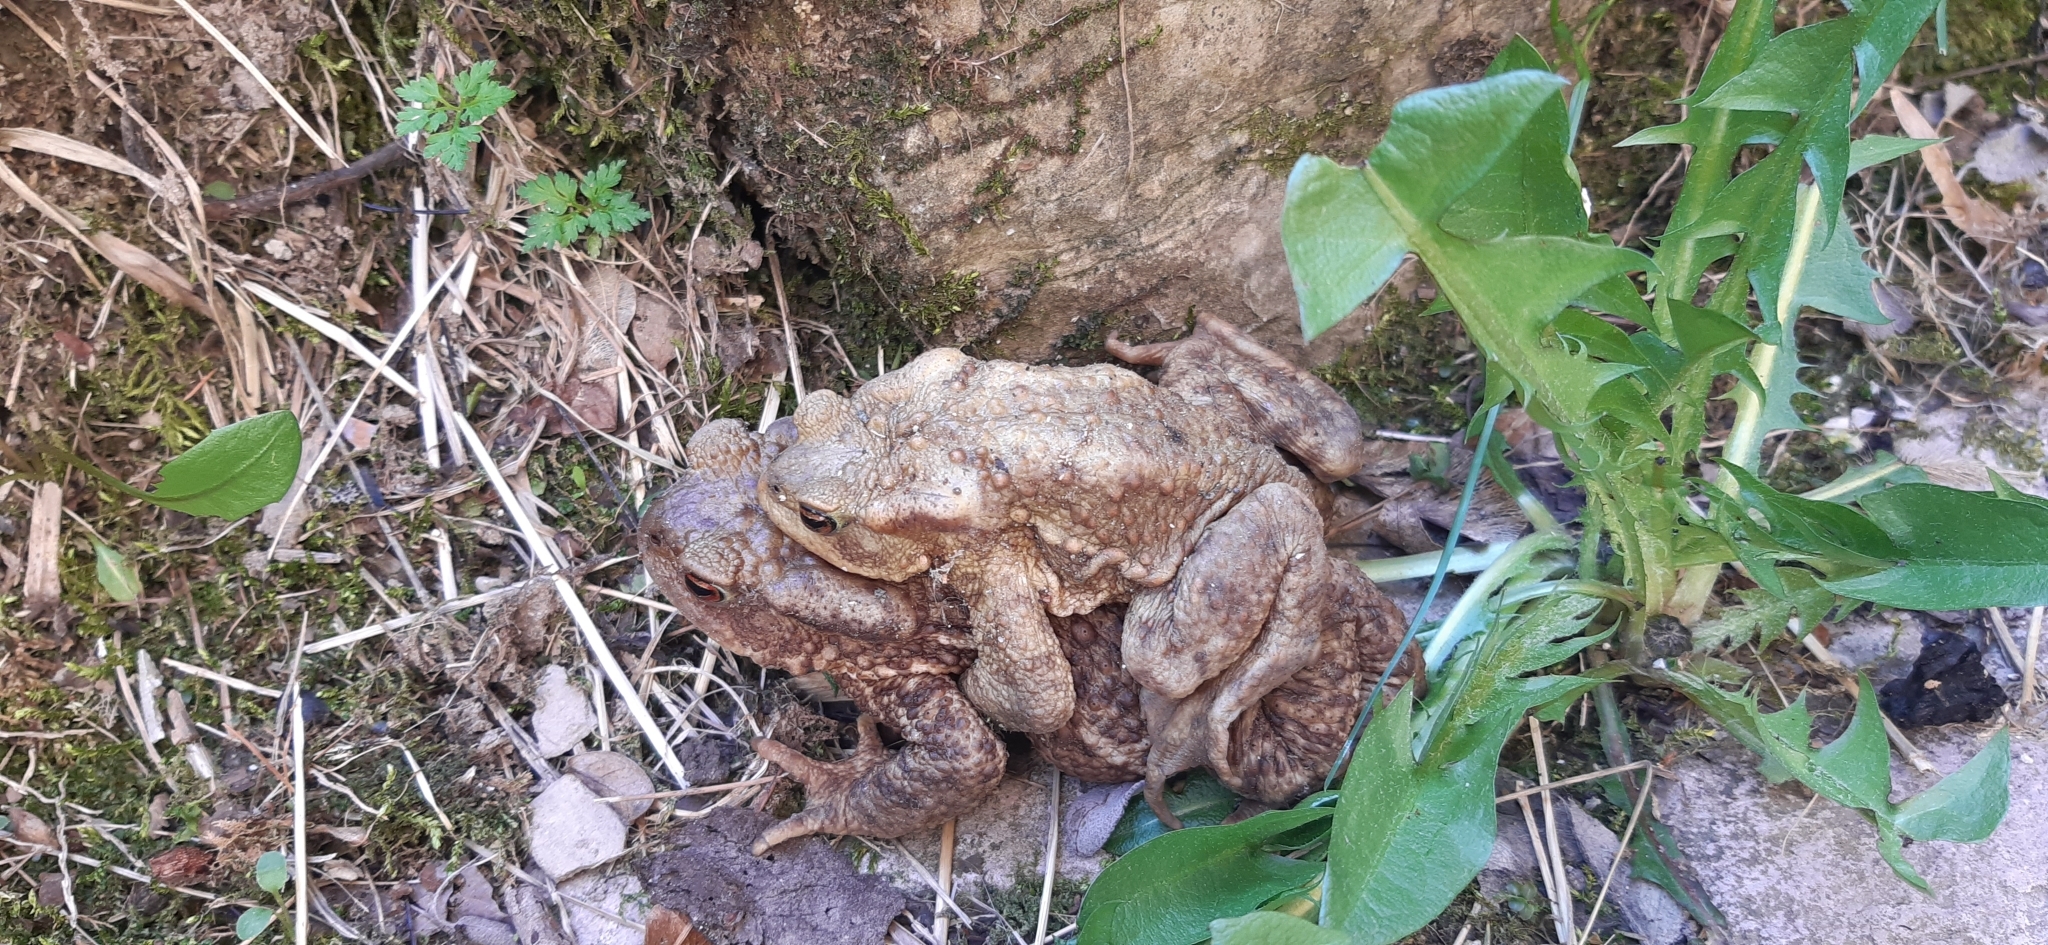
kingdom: Animalia
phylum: Chordata
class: Amphibia
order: Anura
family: Bufonidae
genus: Bufo
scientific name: Bufo bufo
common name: Common toad
